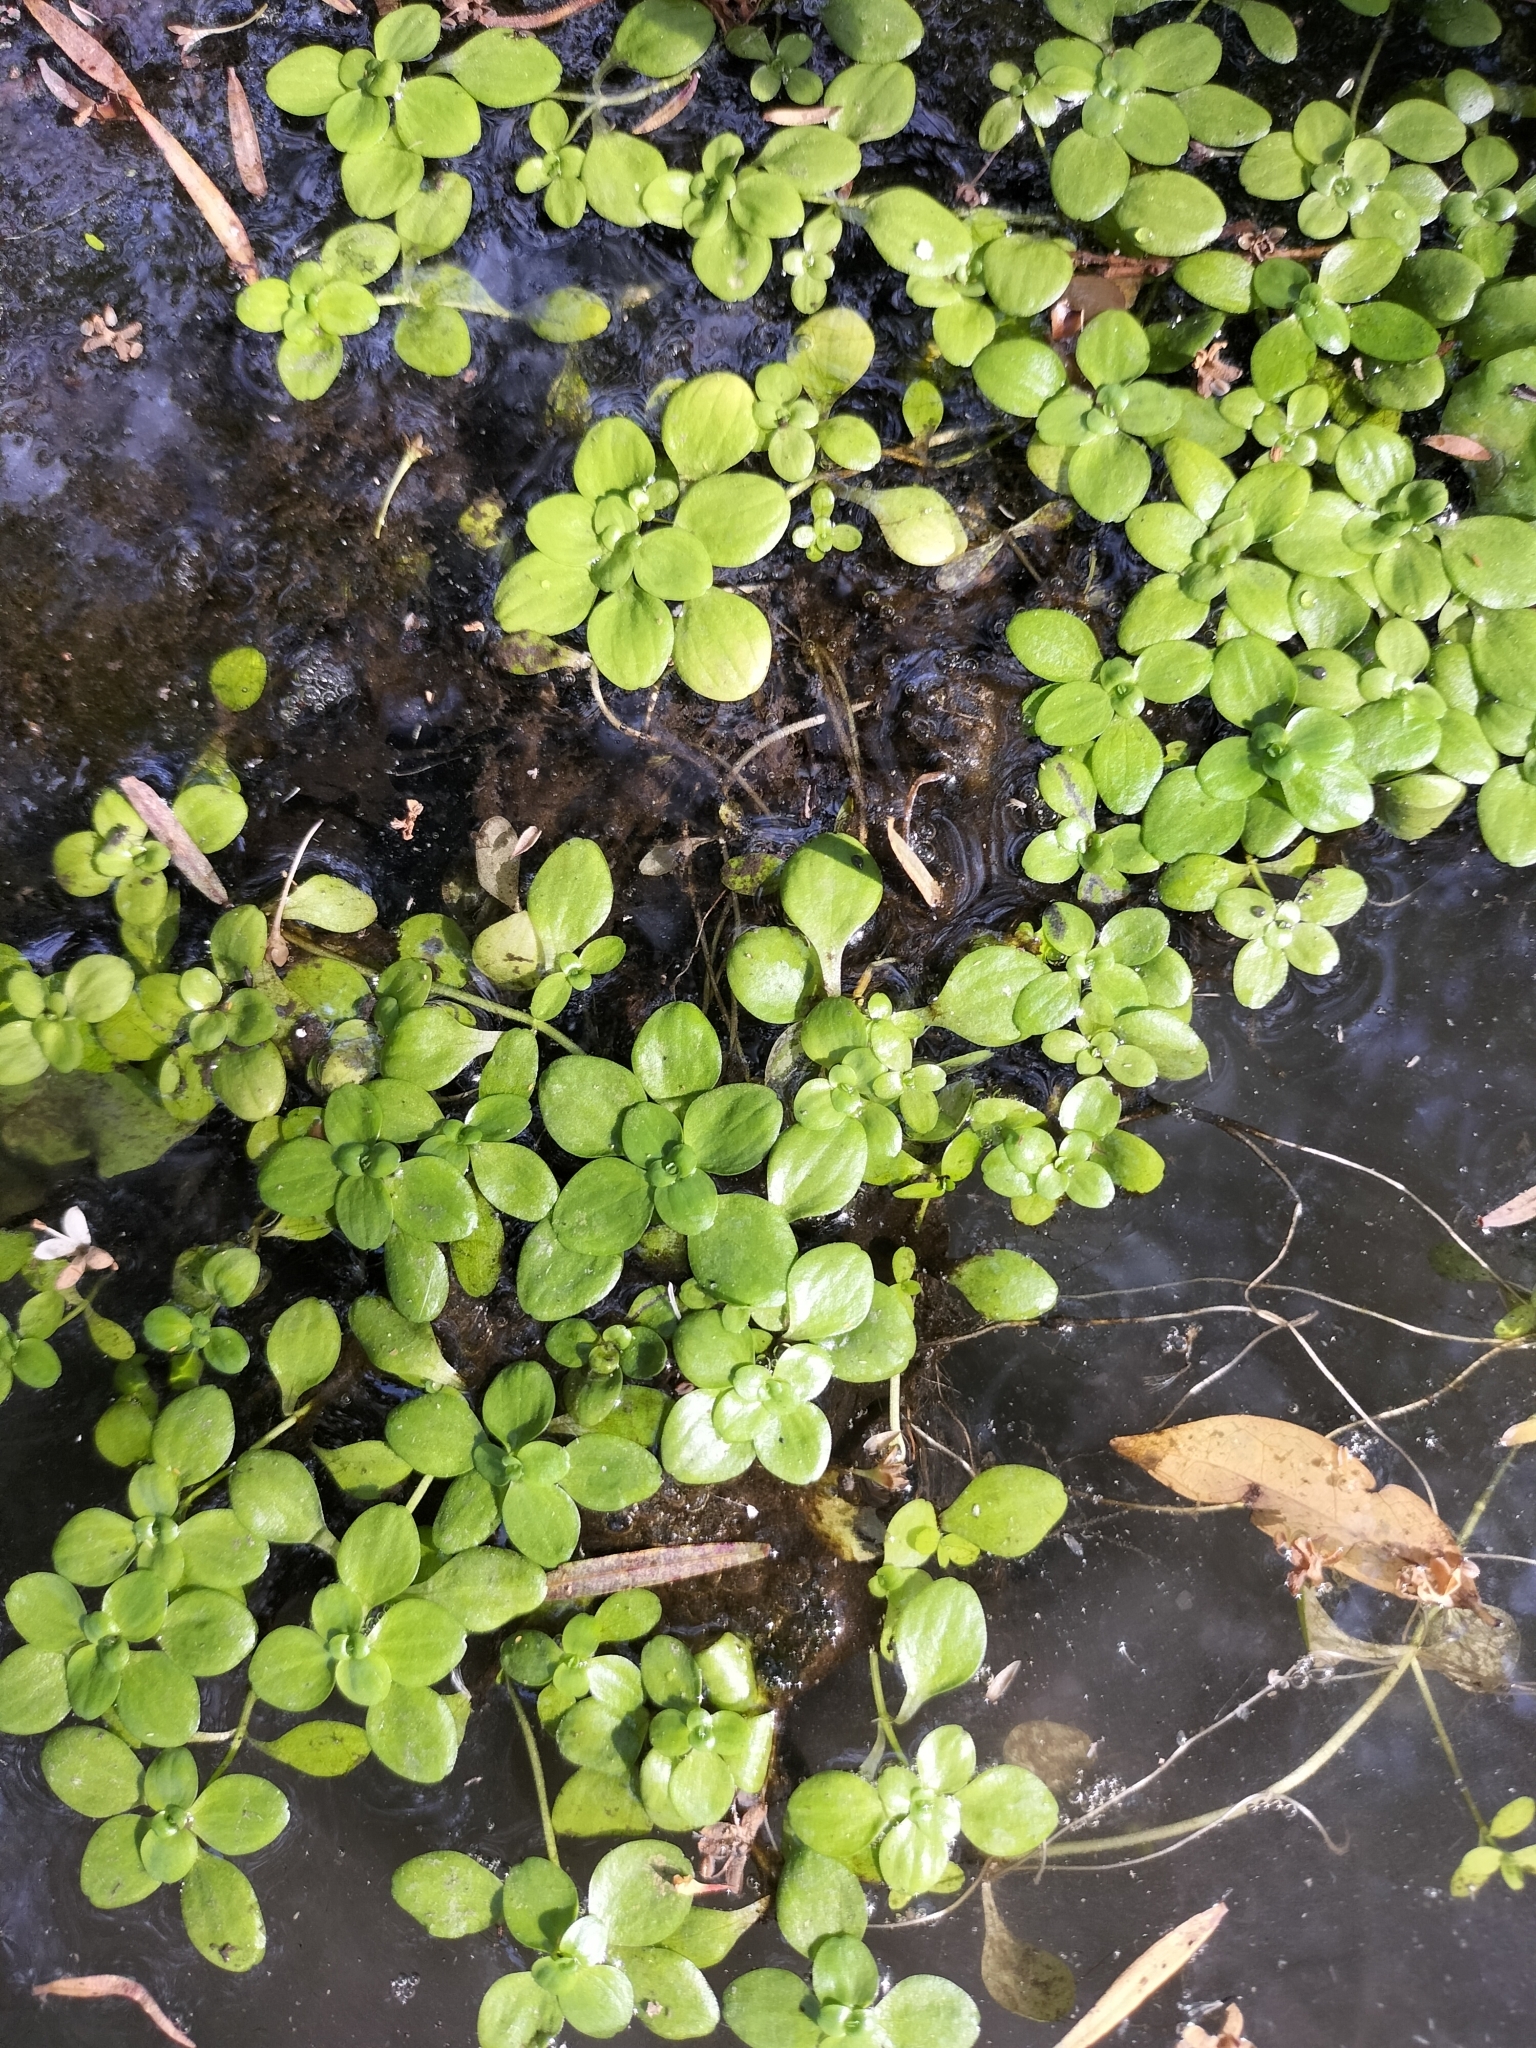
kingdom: Plantae
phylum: Tracheophyta
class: Magnoliopsida
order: Lamiales
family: Plantaginaceae
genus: Callitriche
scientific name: Callitriche stagnalis
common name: Common water-starwort
